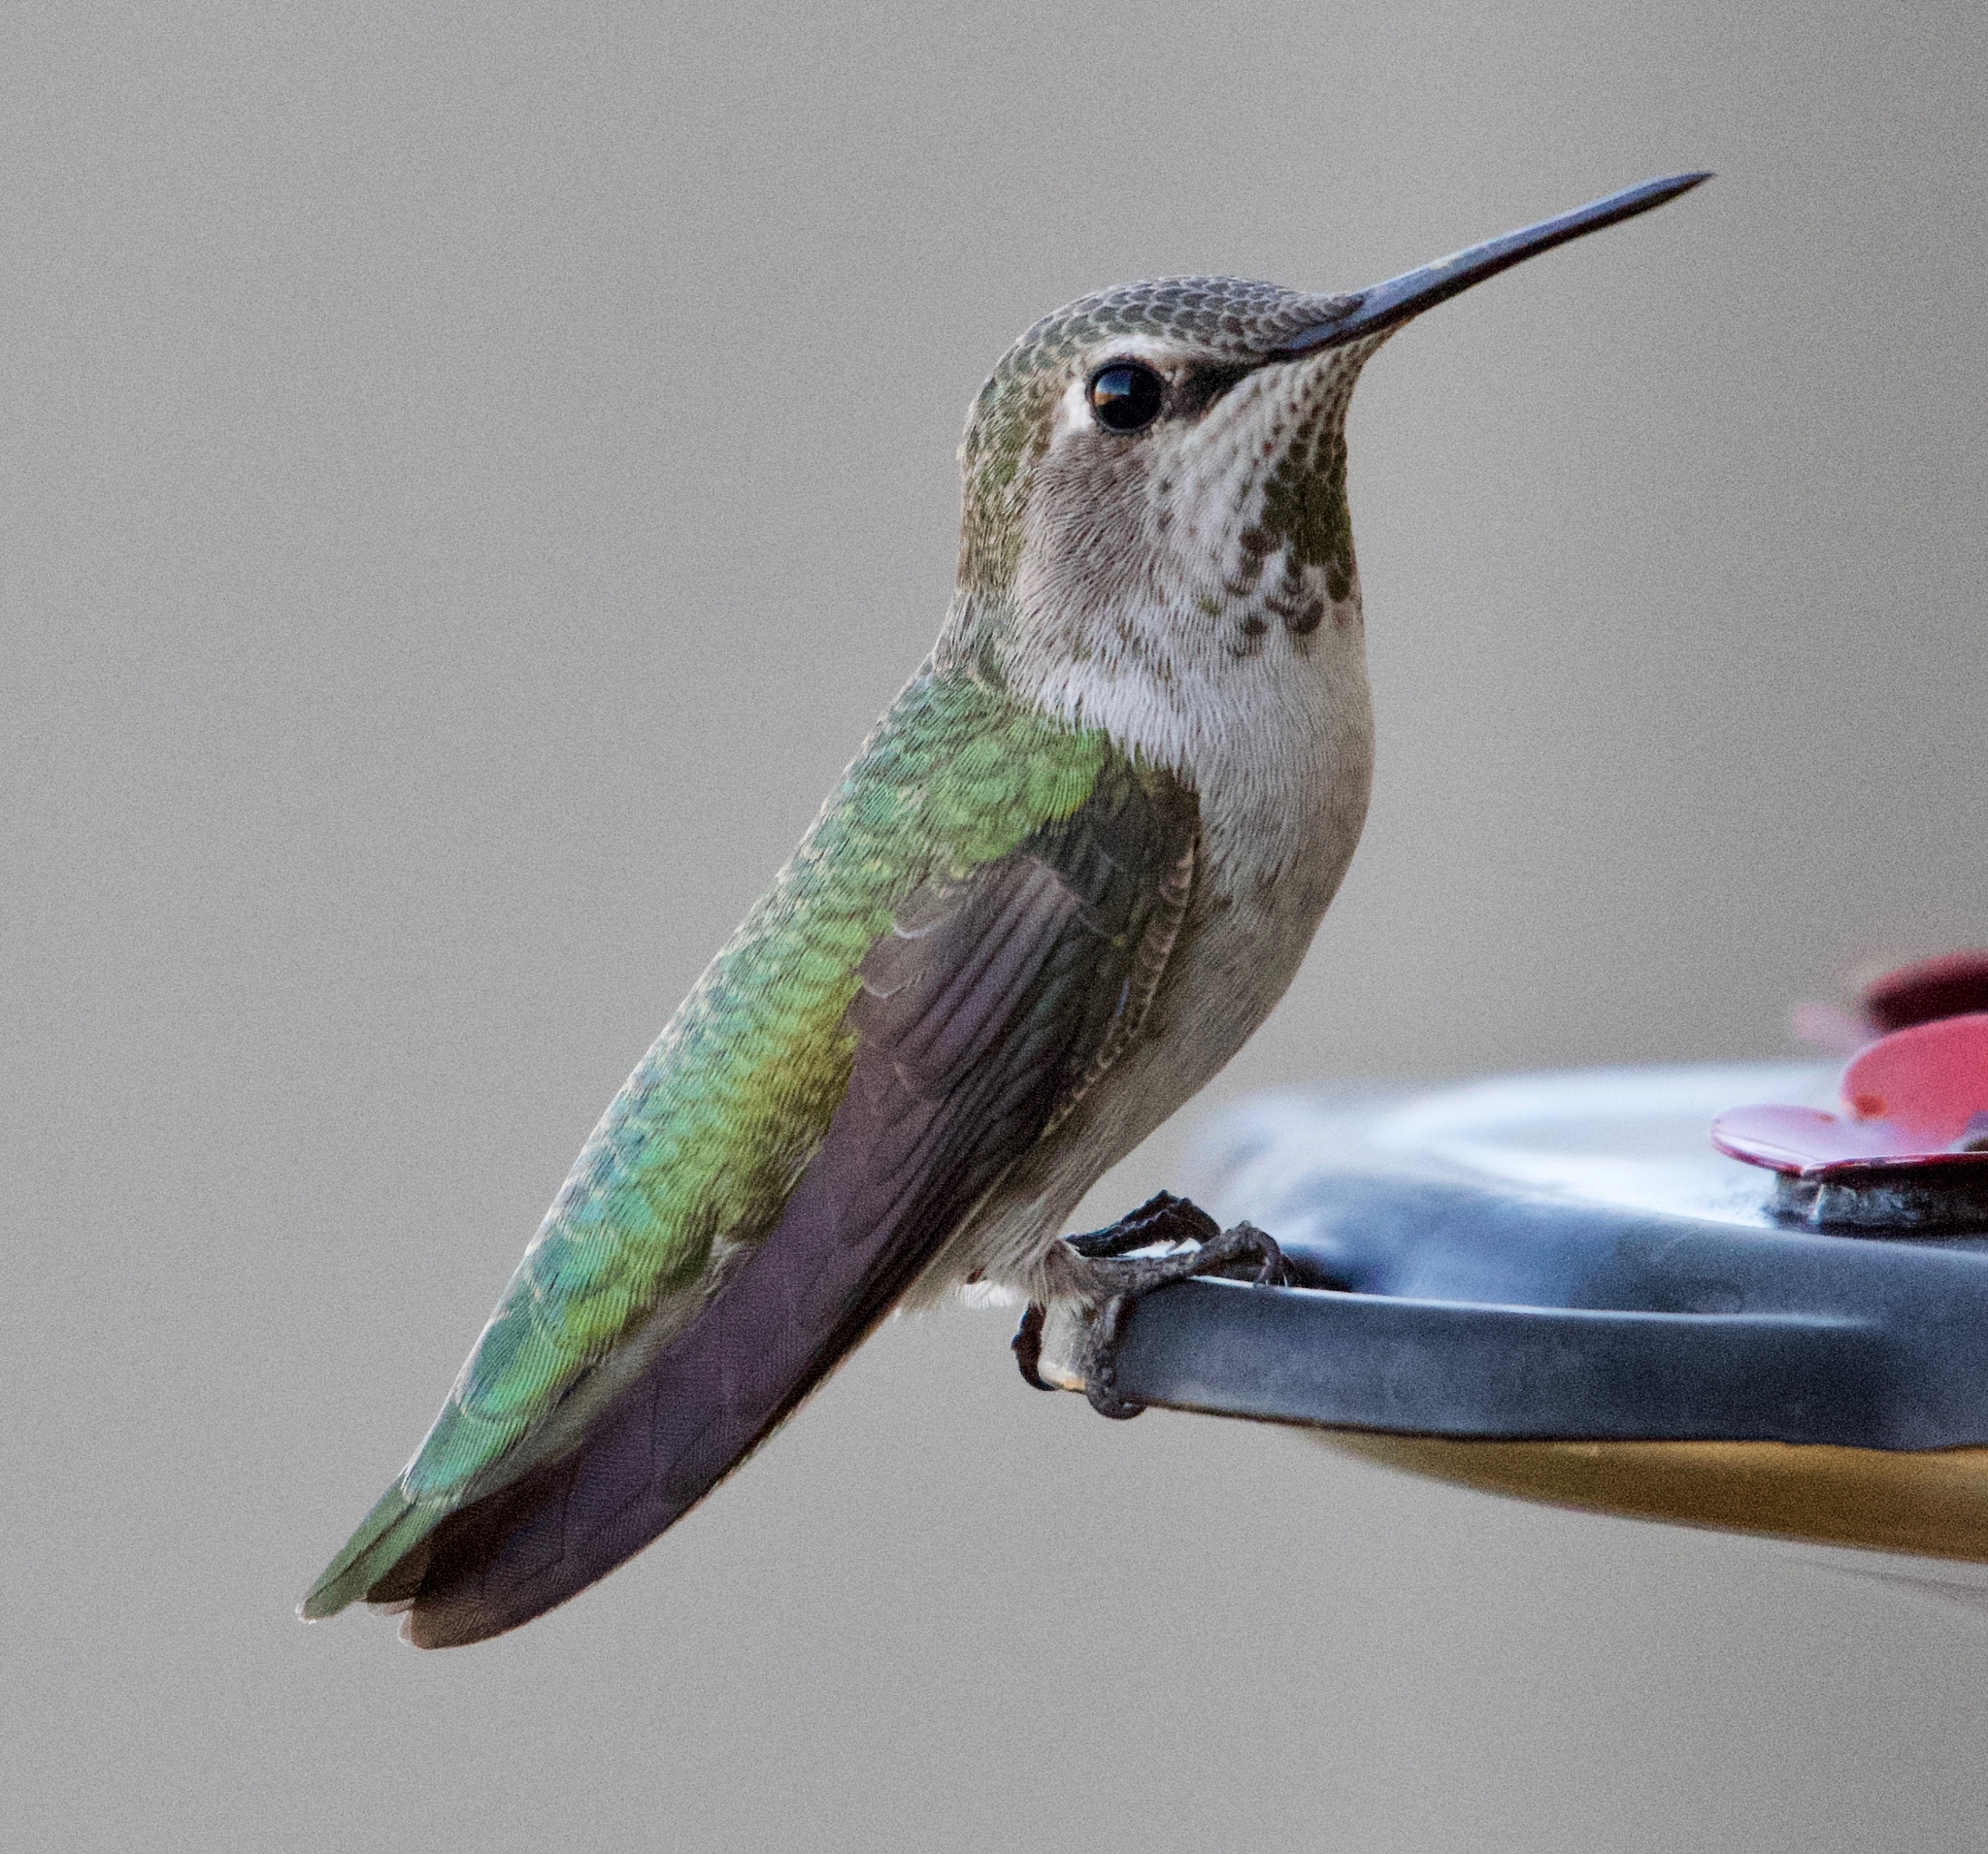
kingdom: Animalia
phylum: Chordata
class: Aves
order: Apodiformes
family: Trochilidae
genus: Calypte
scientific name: Calypte anna
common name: Anna's hummingbird
